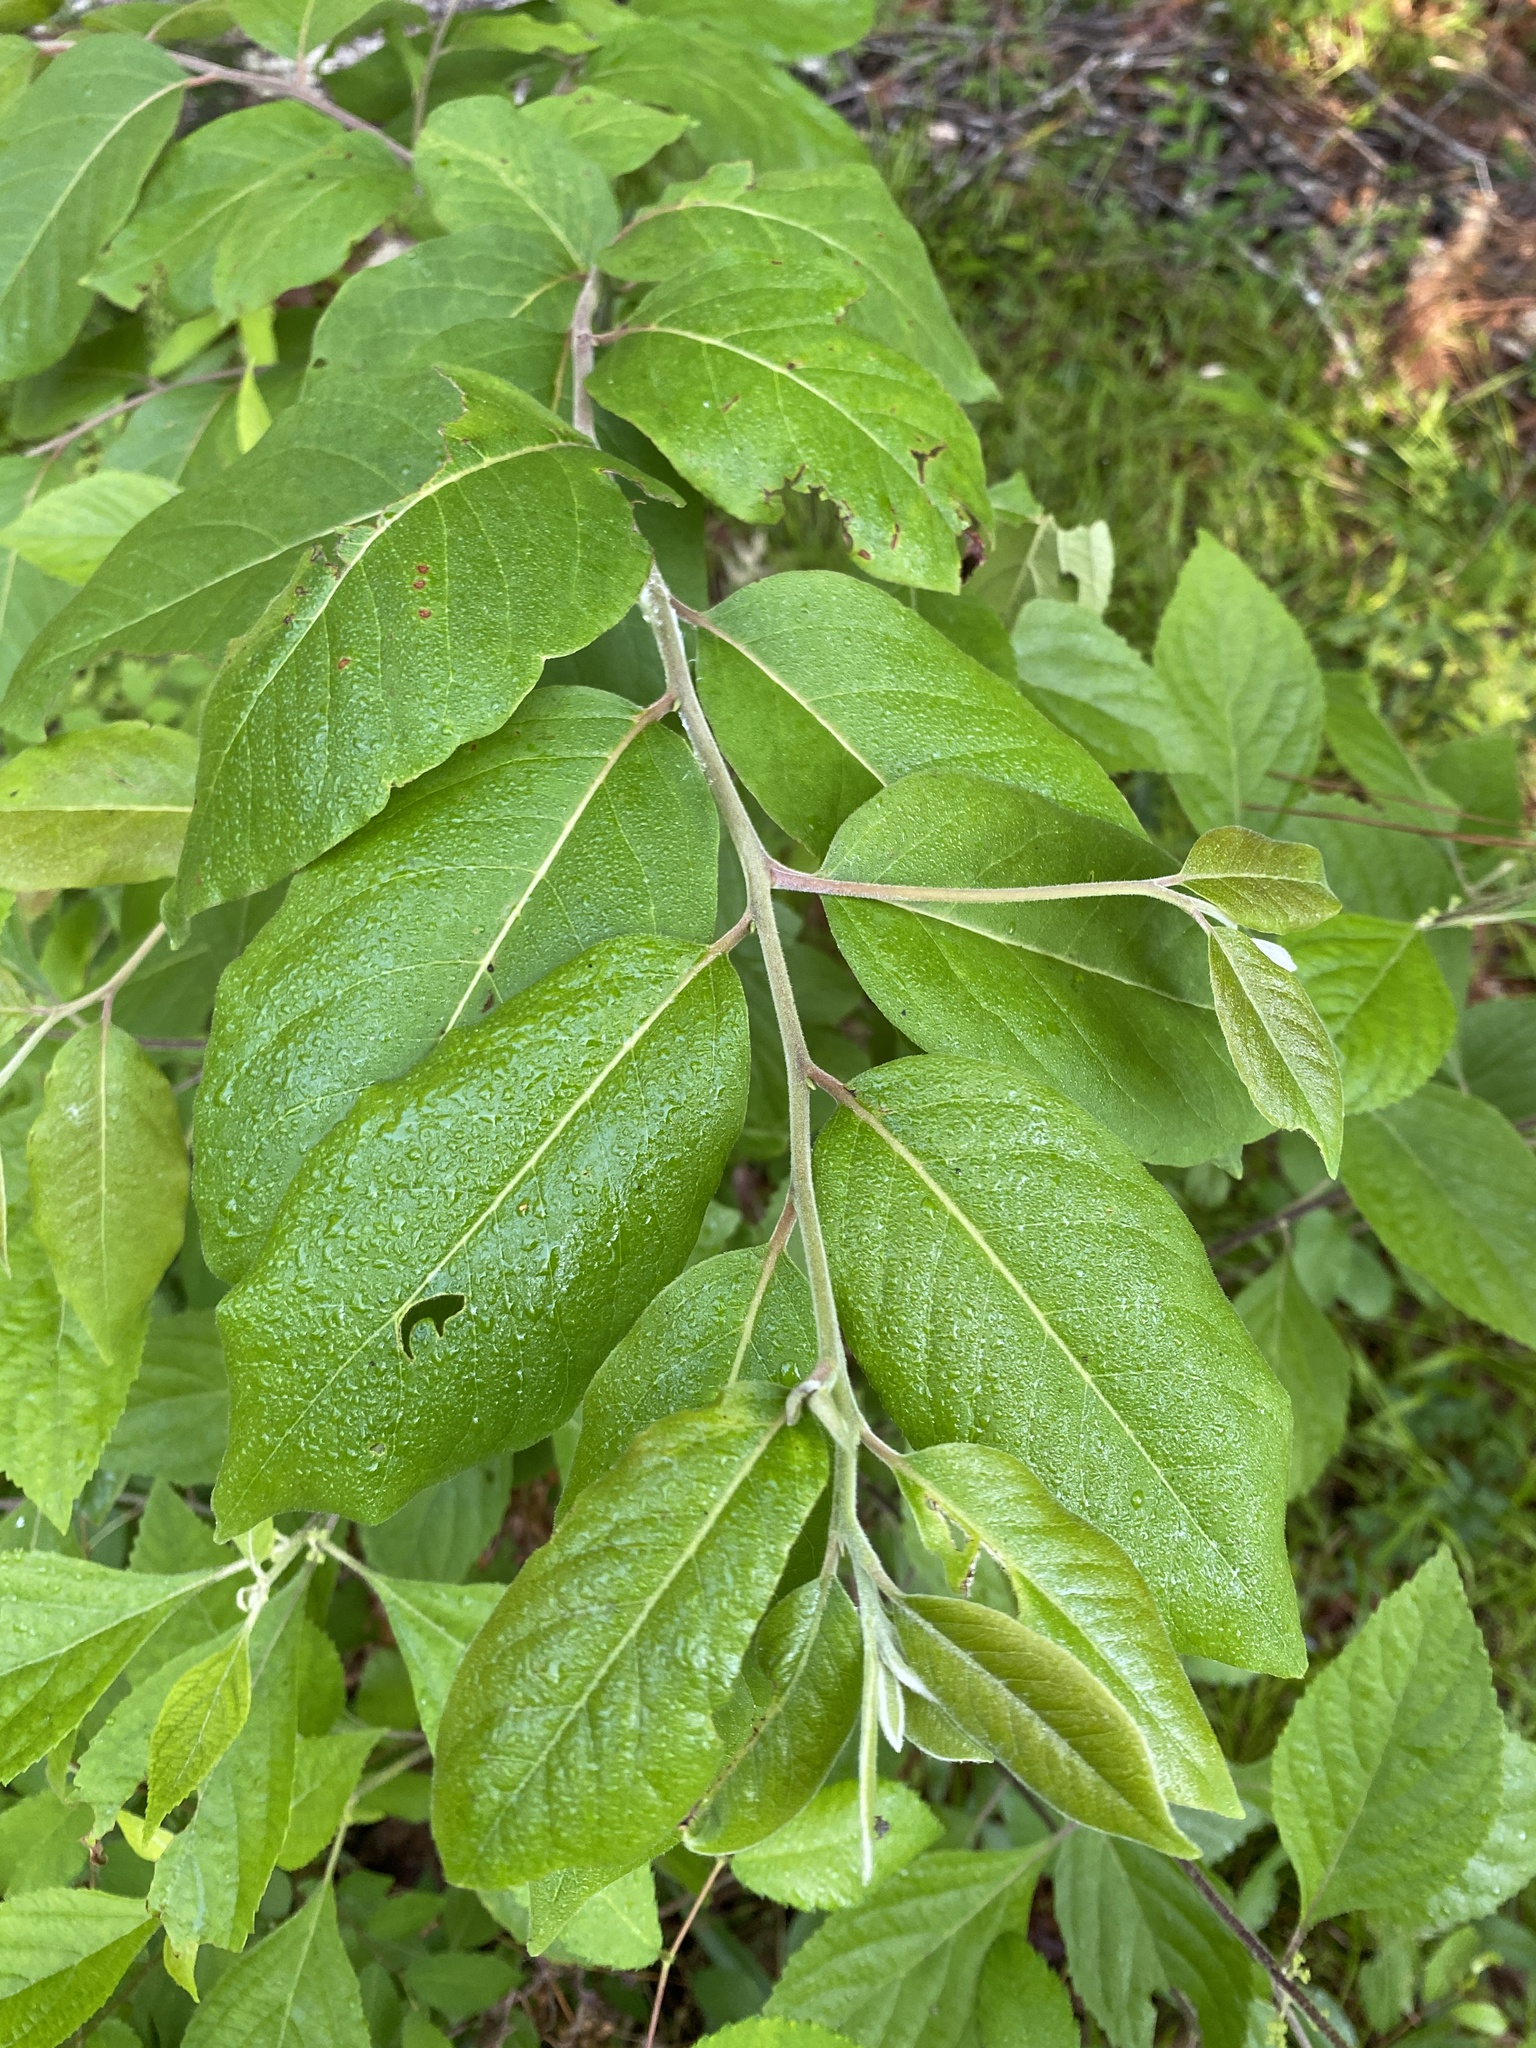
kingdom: Plantae
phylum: Tracheophyta
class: Magnoliopsida
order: Ericales
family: Ebenaceae
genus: Diospyros
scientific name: Diospyros virginiana
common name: Persimmon
